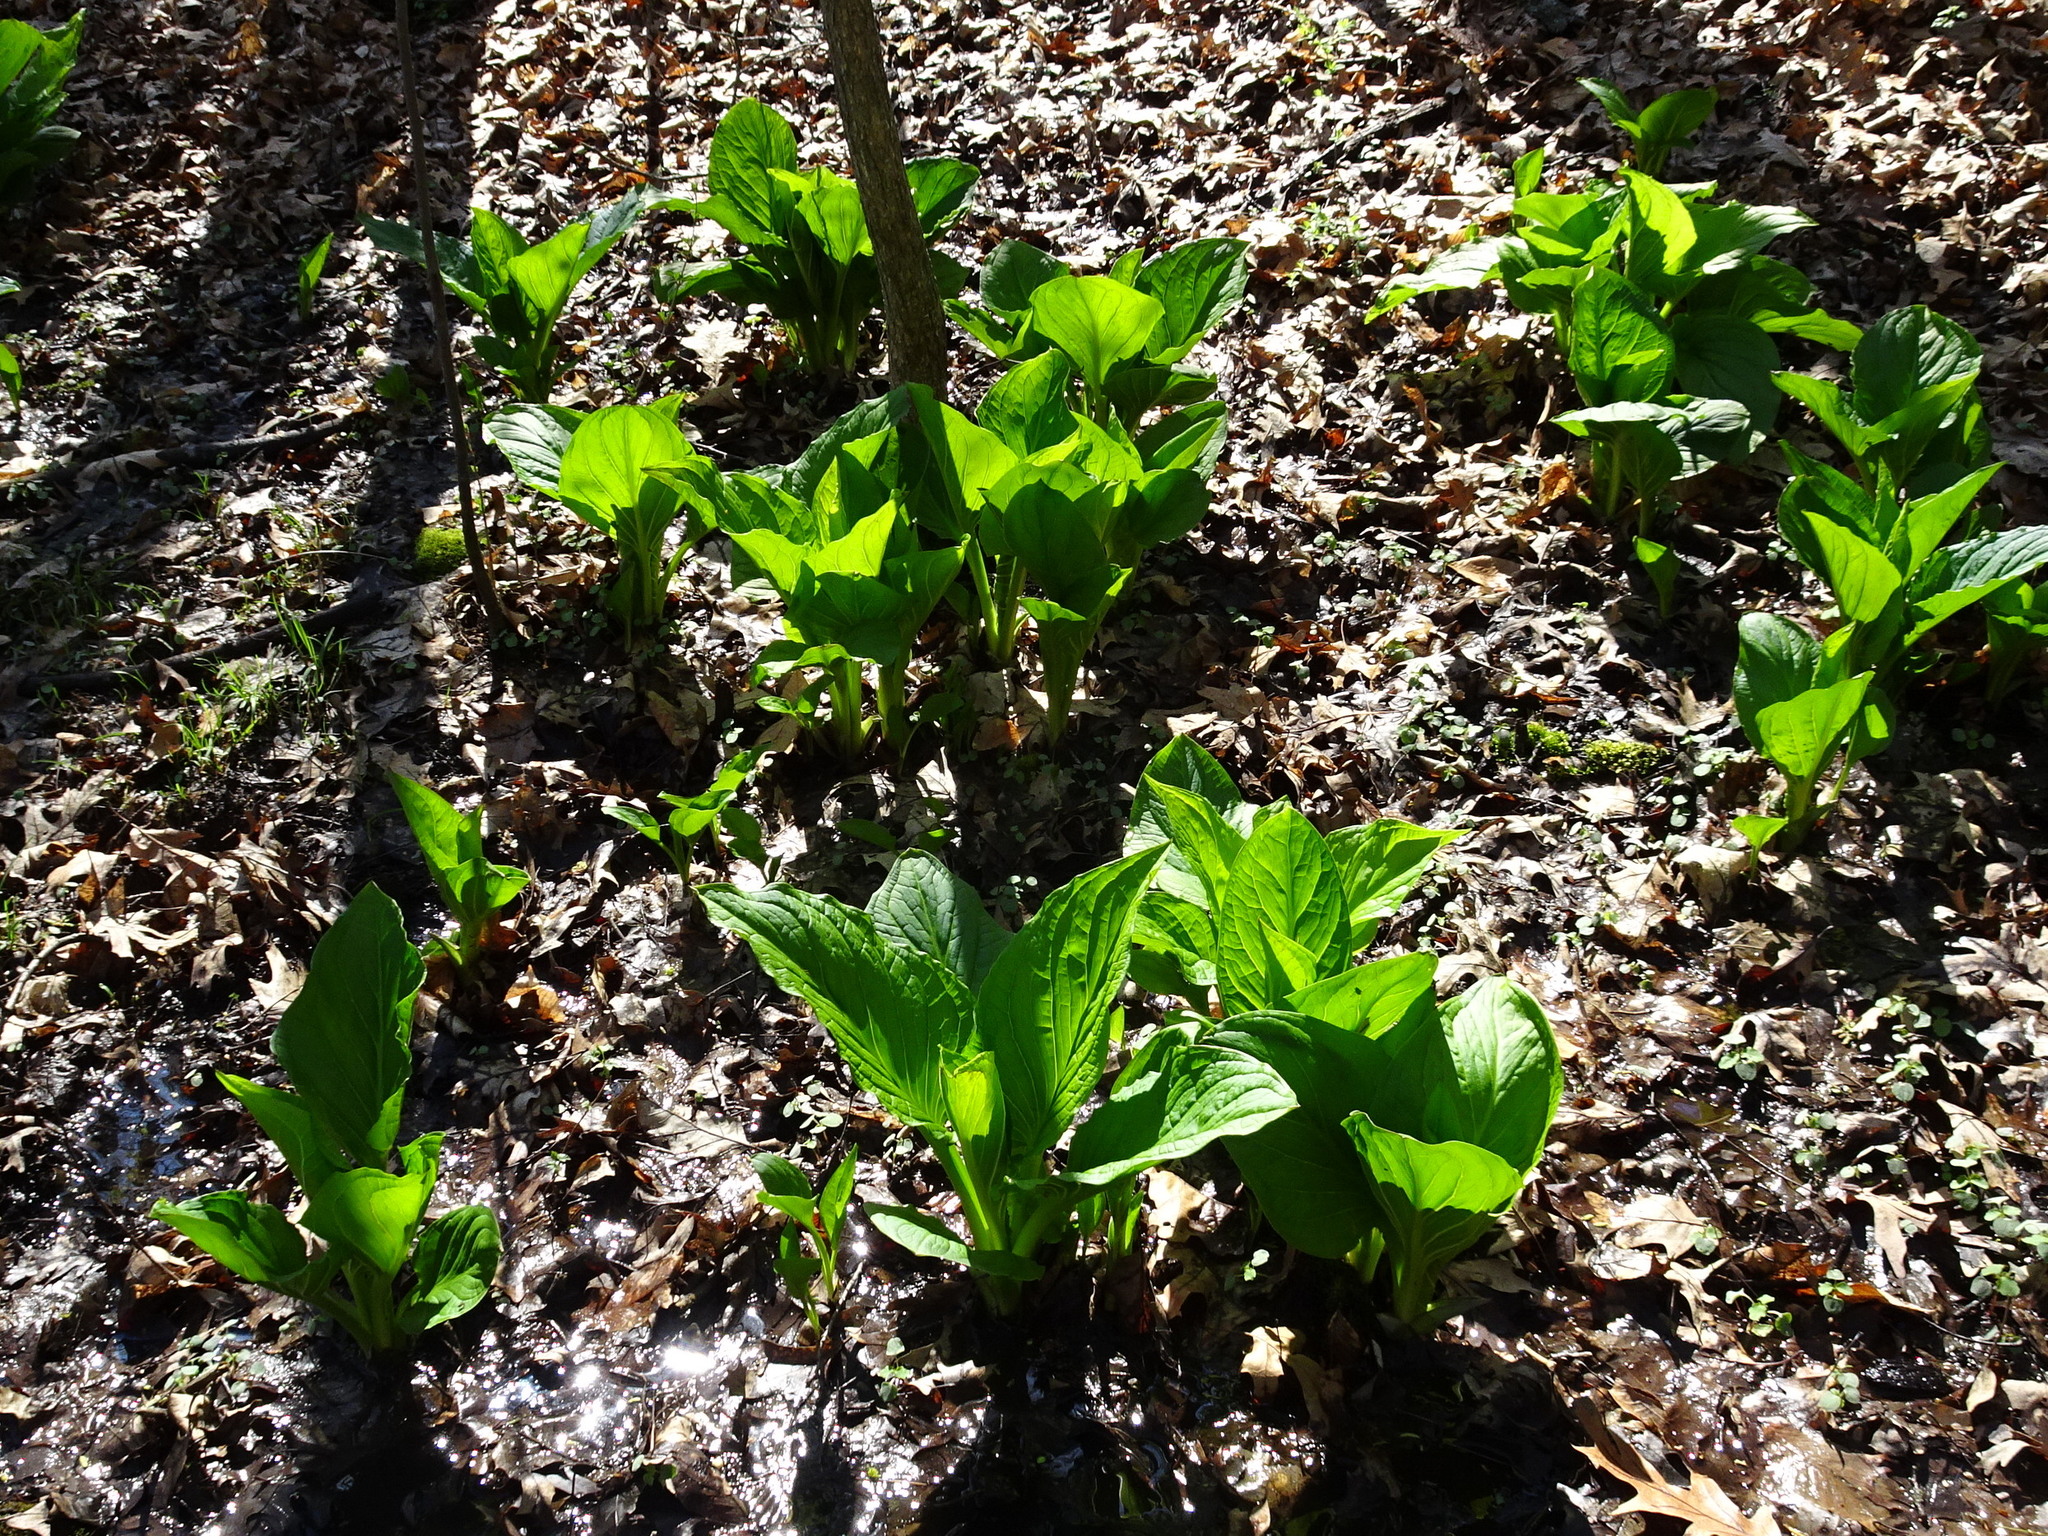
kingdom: Plantae
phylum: Tracheophyta
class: Liliopsida
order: Alismatales
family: Araceae
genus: Symplocarpus
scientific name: Symplocarpus foetidus
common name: Eastern skunk cabbage
